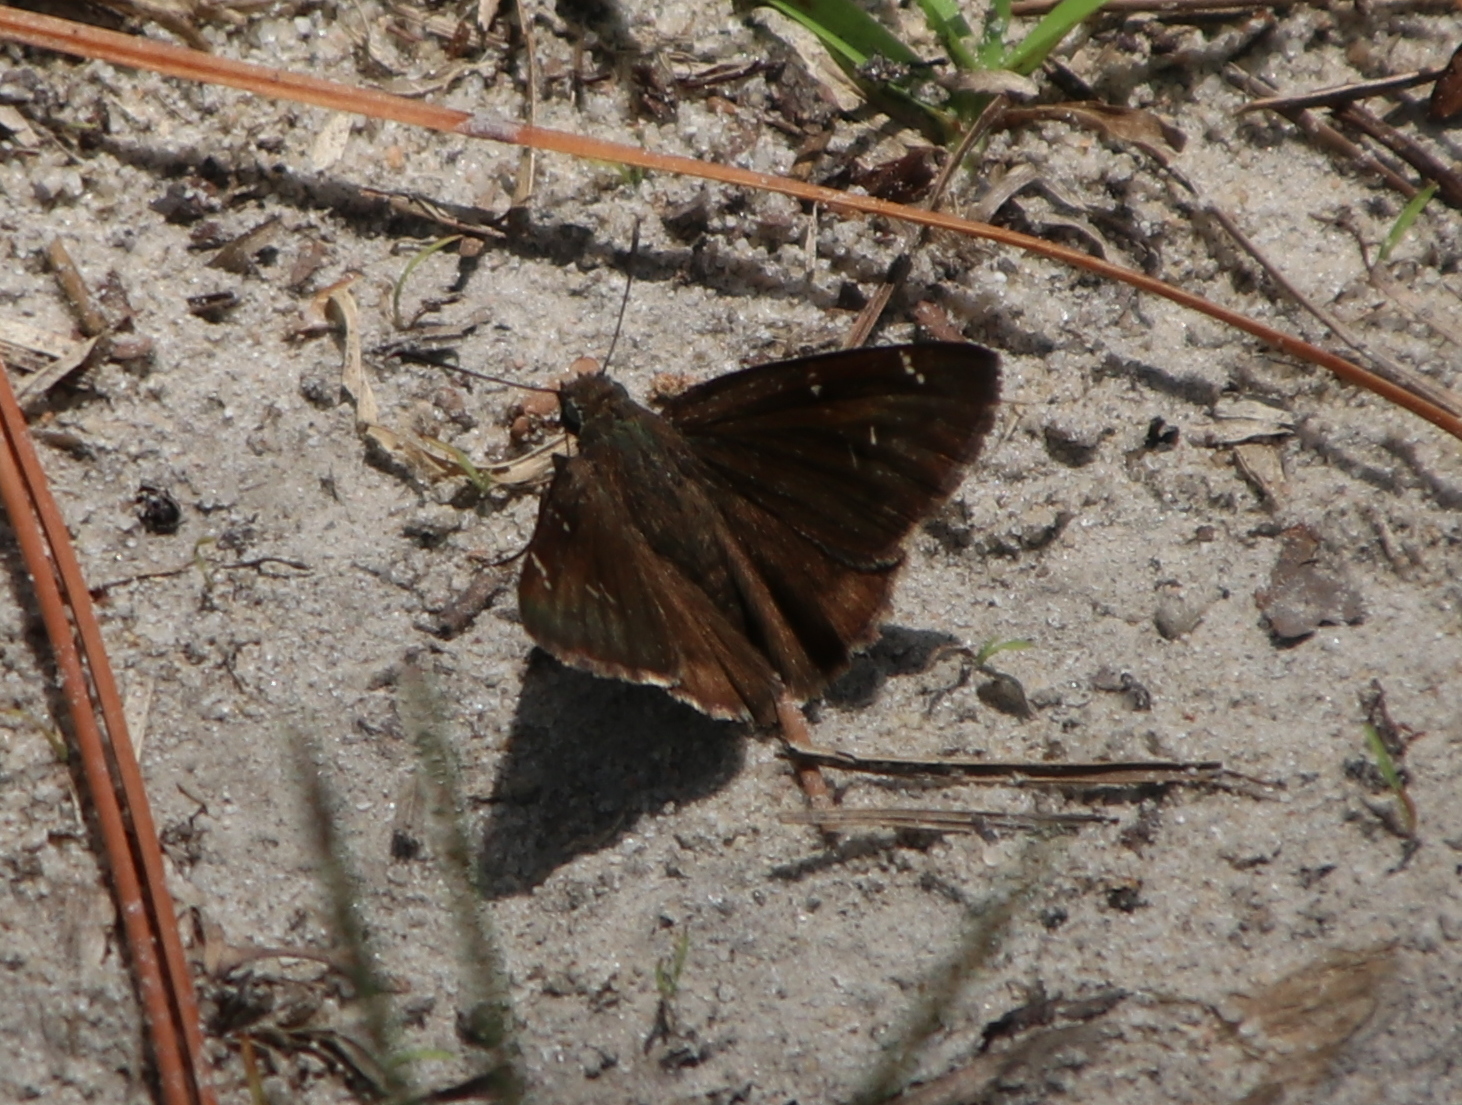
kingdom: Animalia
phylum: Arthropoda
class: Insecta
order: Lepidoptera
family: Hesperiidae
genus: Thorybes
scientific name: Thorybes daunus
